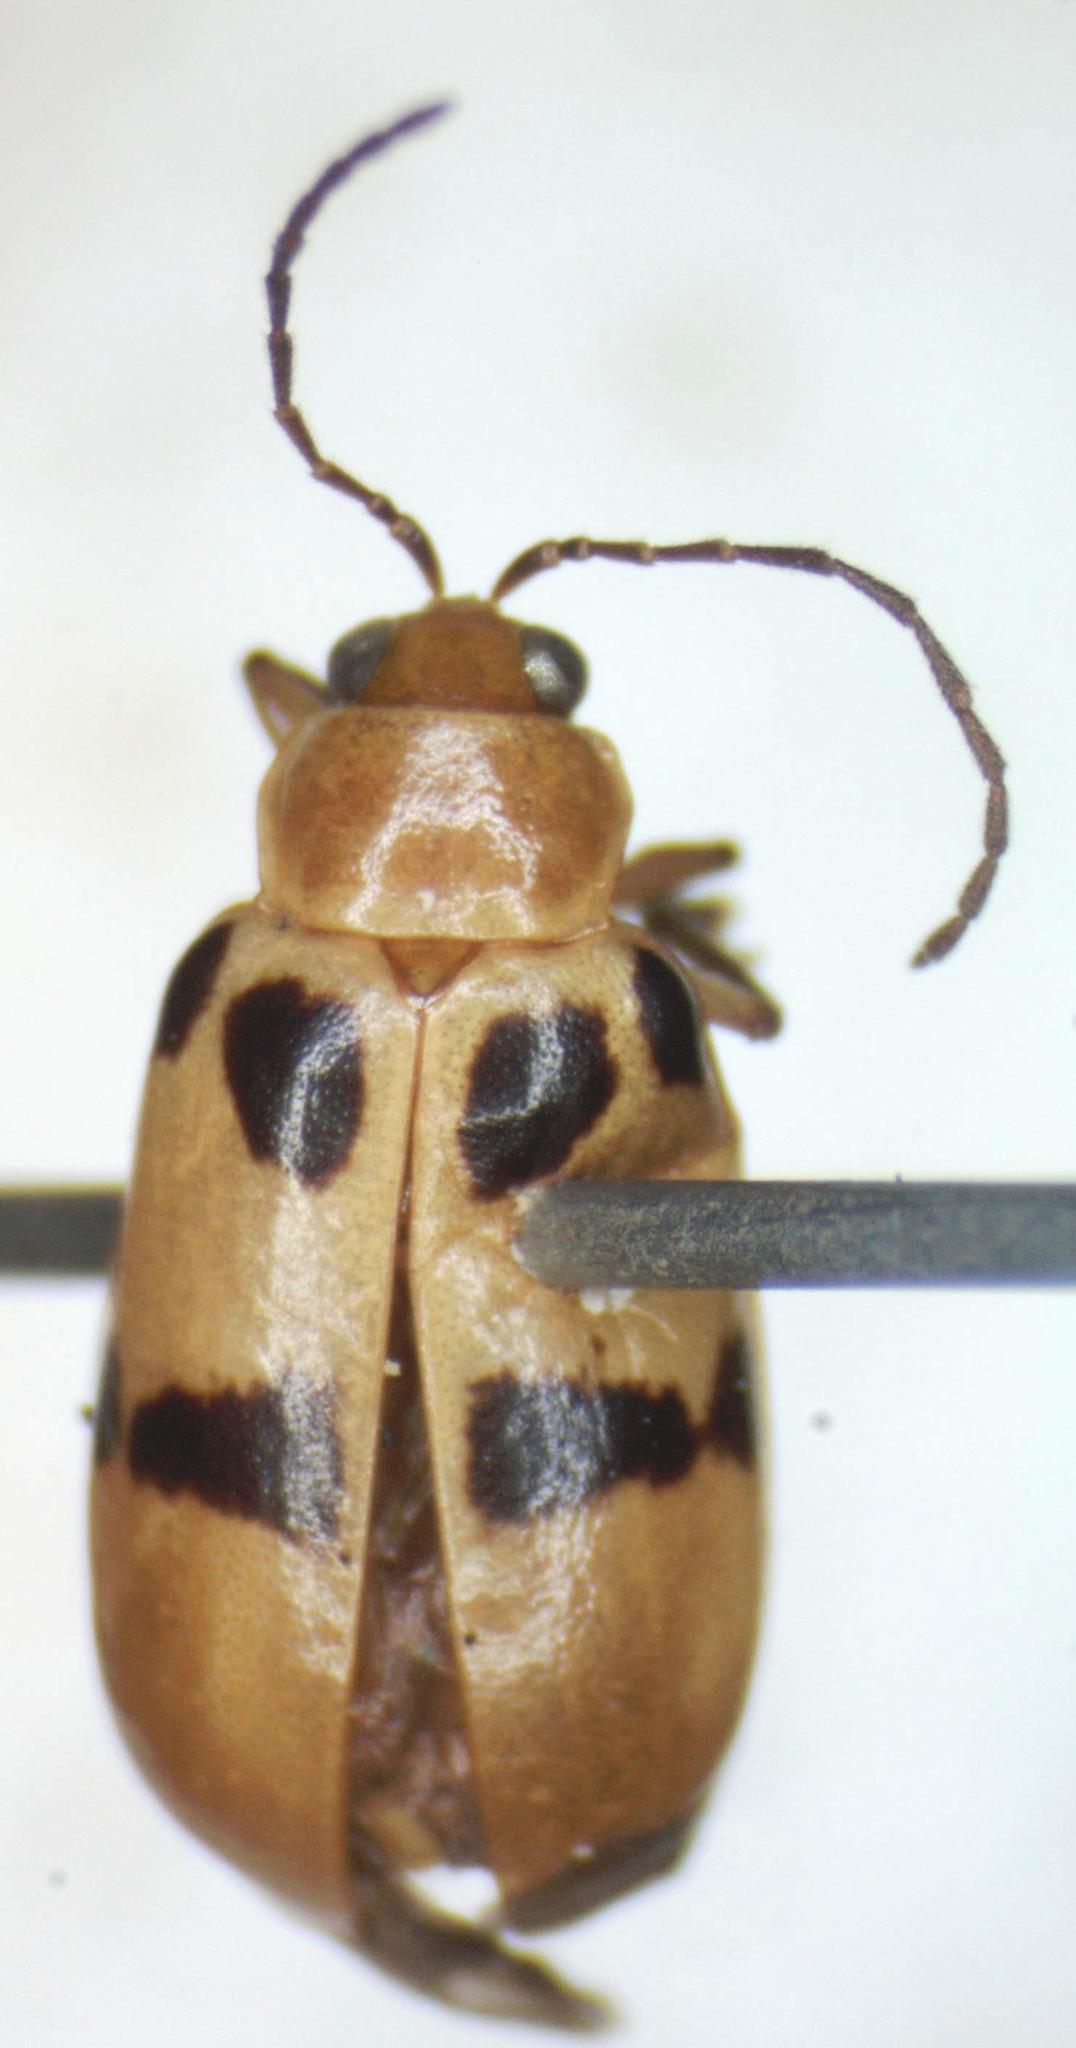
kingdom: Animalia
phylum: Arthropoda
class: Insecta
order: Coleoptera
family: Chrysomelidae
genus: Systena
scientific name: Systena
